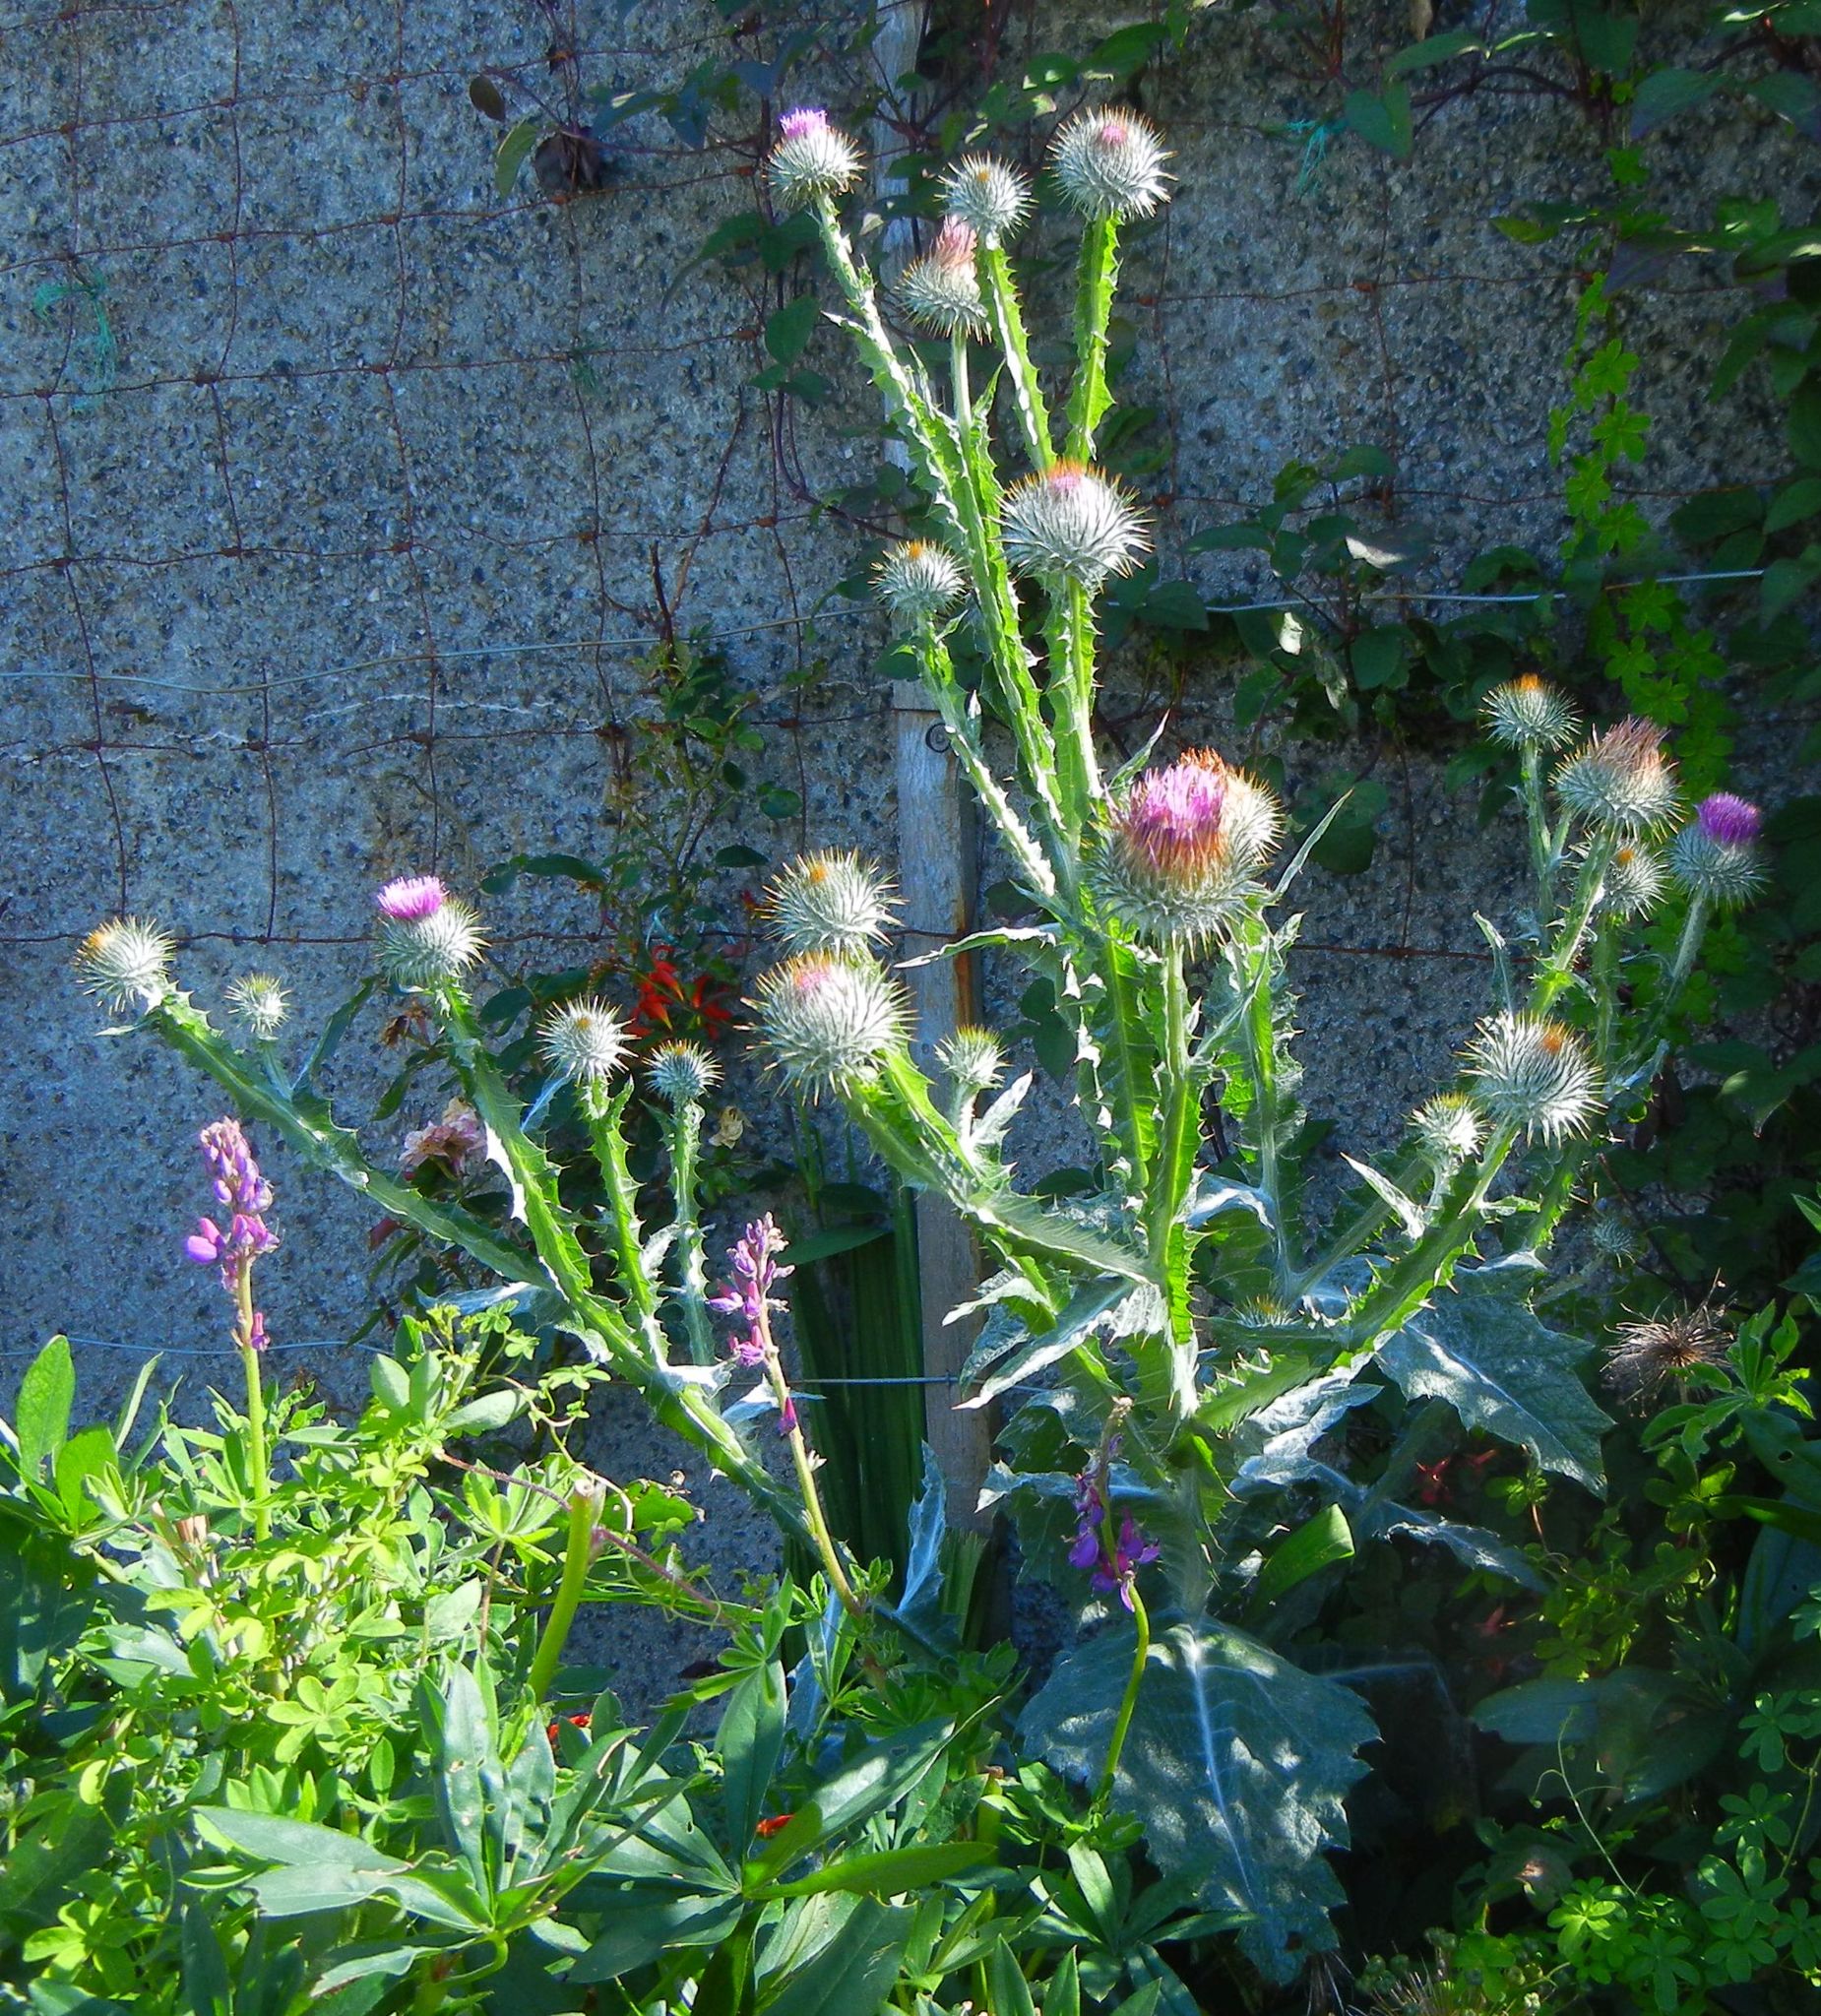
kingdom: Plantae
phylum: Tracheophyta
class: Magnoliopsida
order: Asterales
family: Asteraceae
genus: Onopordum
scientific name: Onopordum acanthium
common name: Scotch thistle
